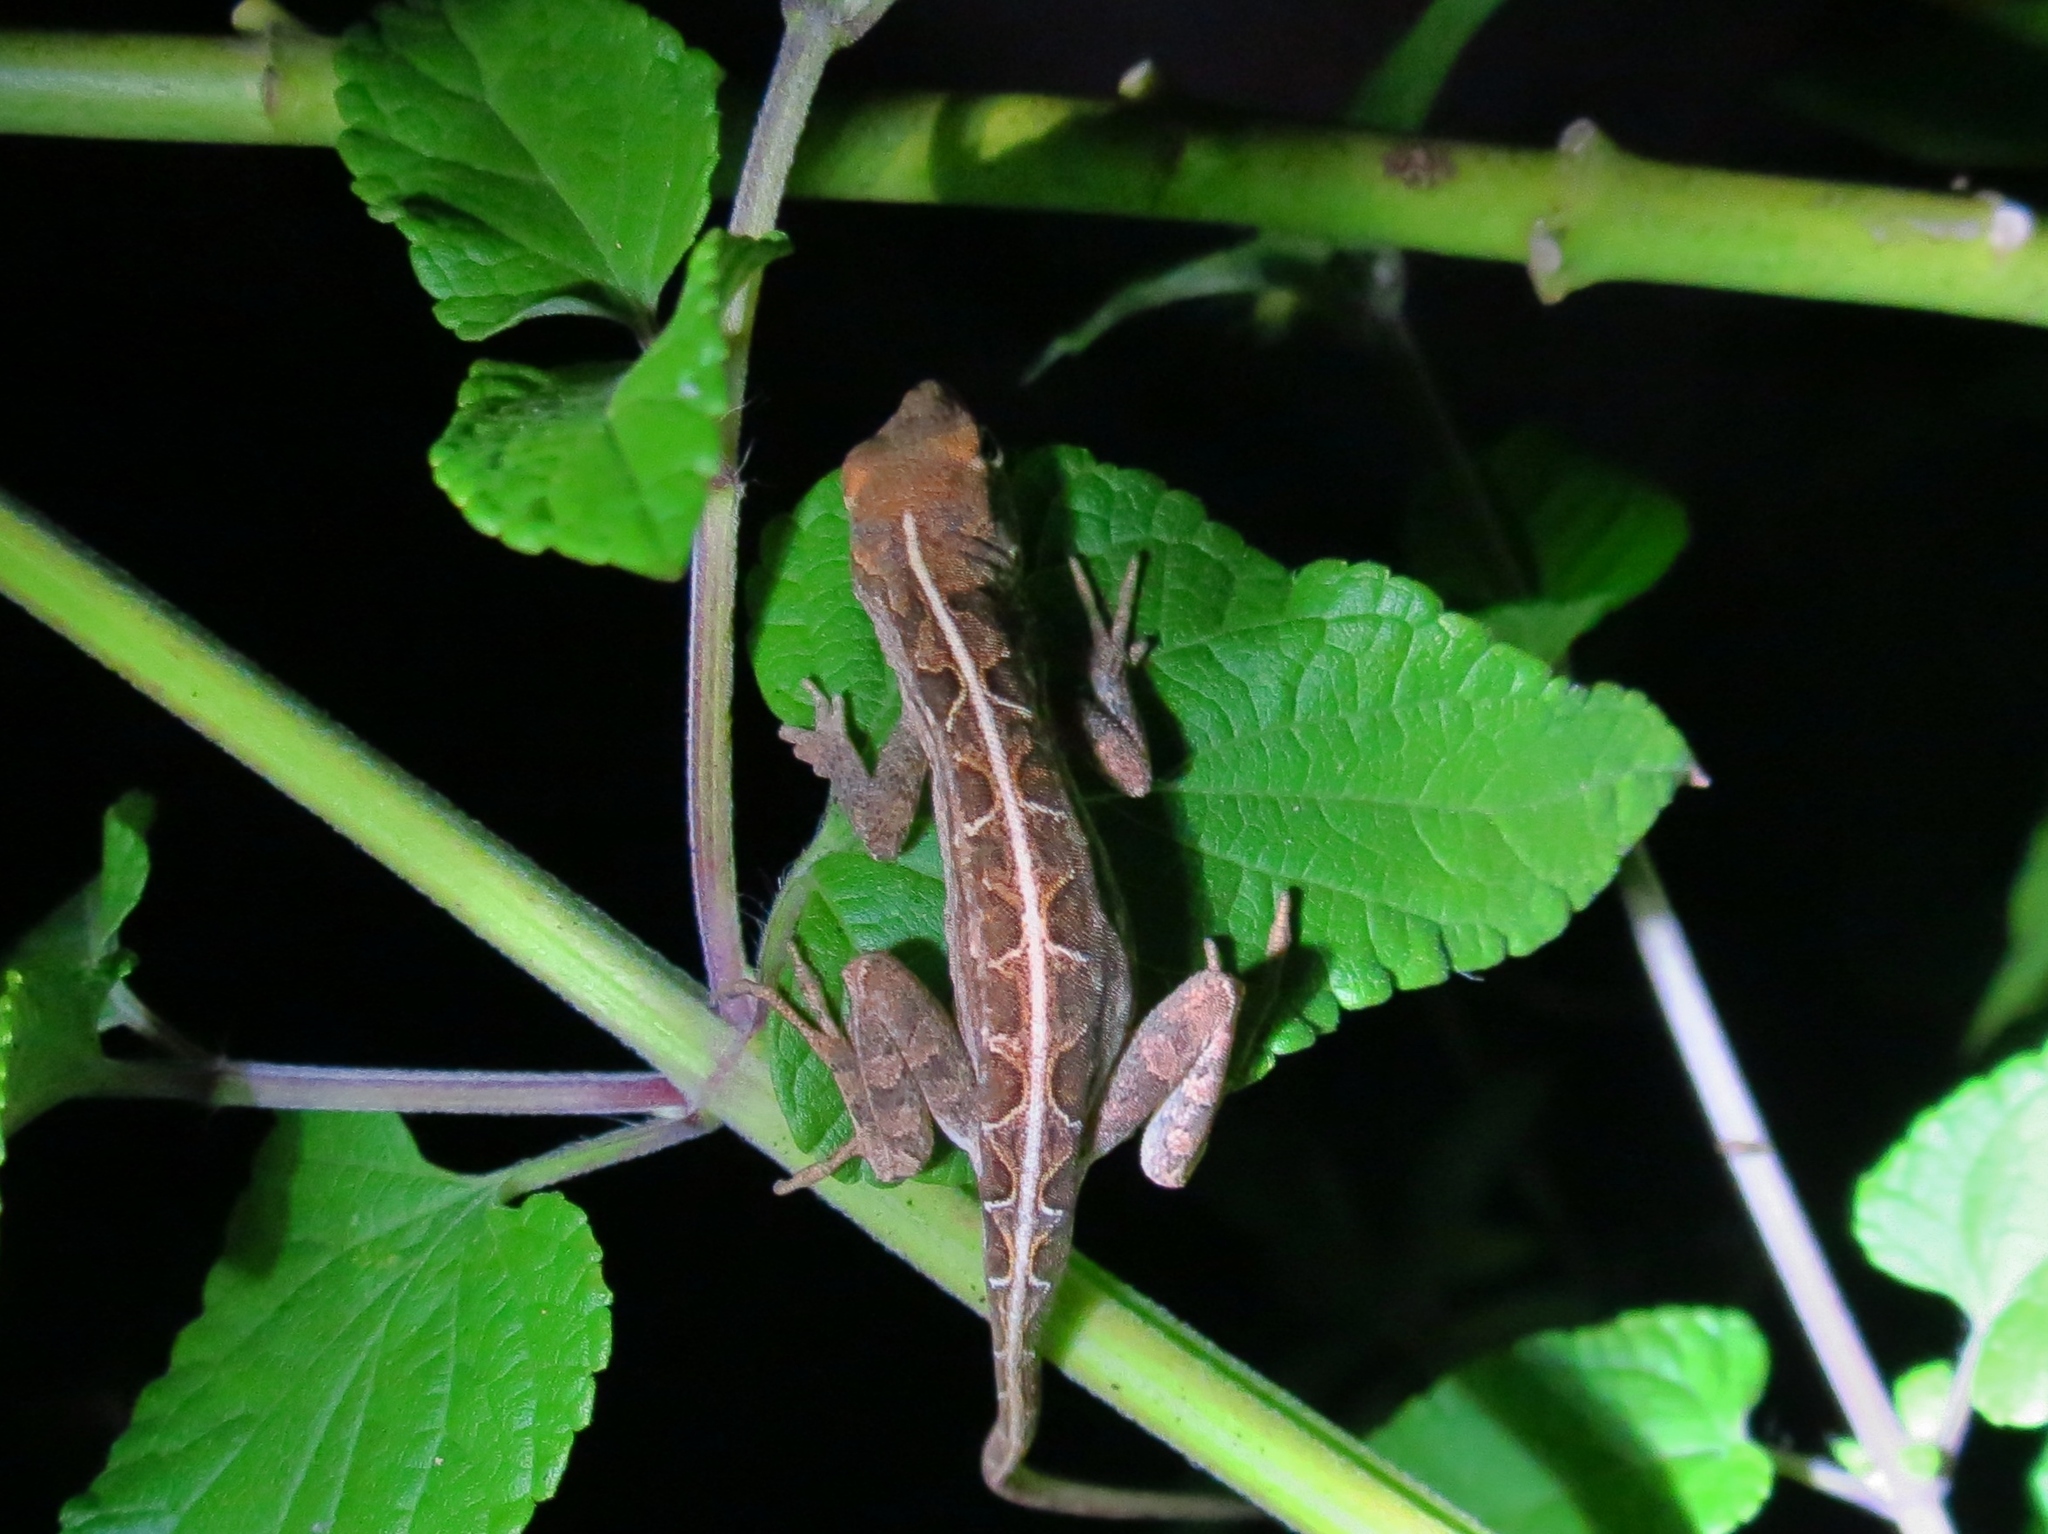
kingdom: Animalia
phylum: Chordata
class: Squamata
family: Dactyloidae
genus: Anolis
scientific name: Anolis sagrei
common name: Brown anole
